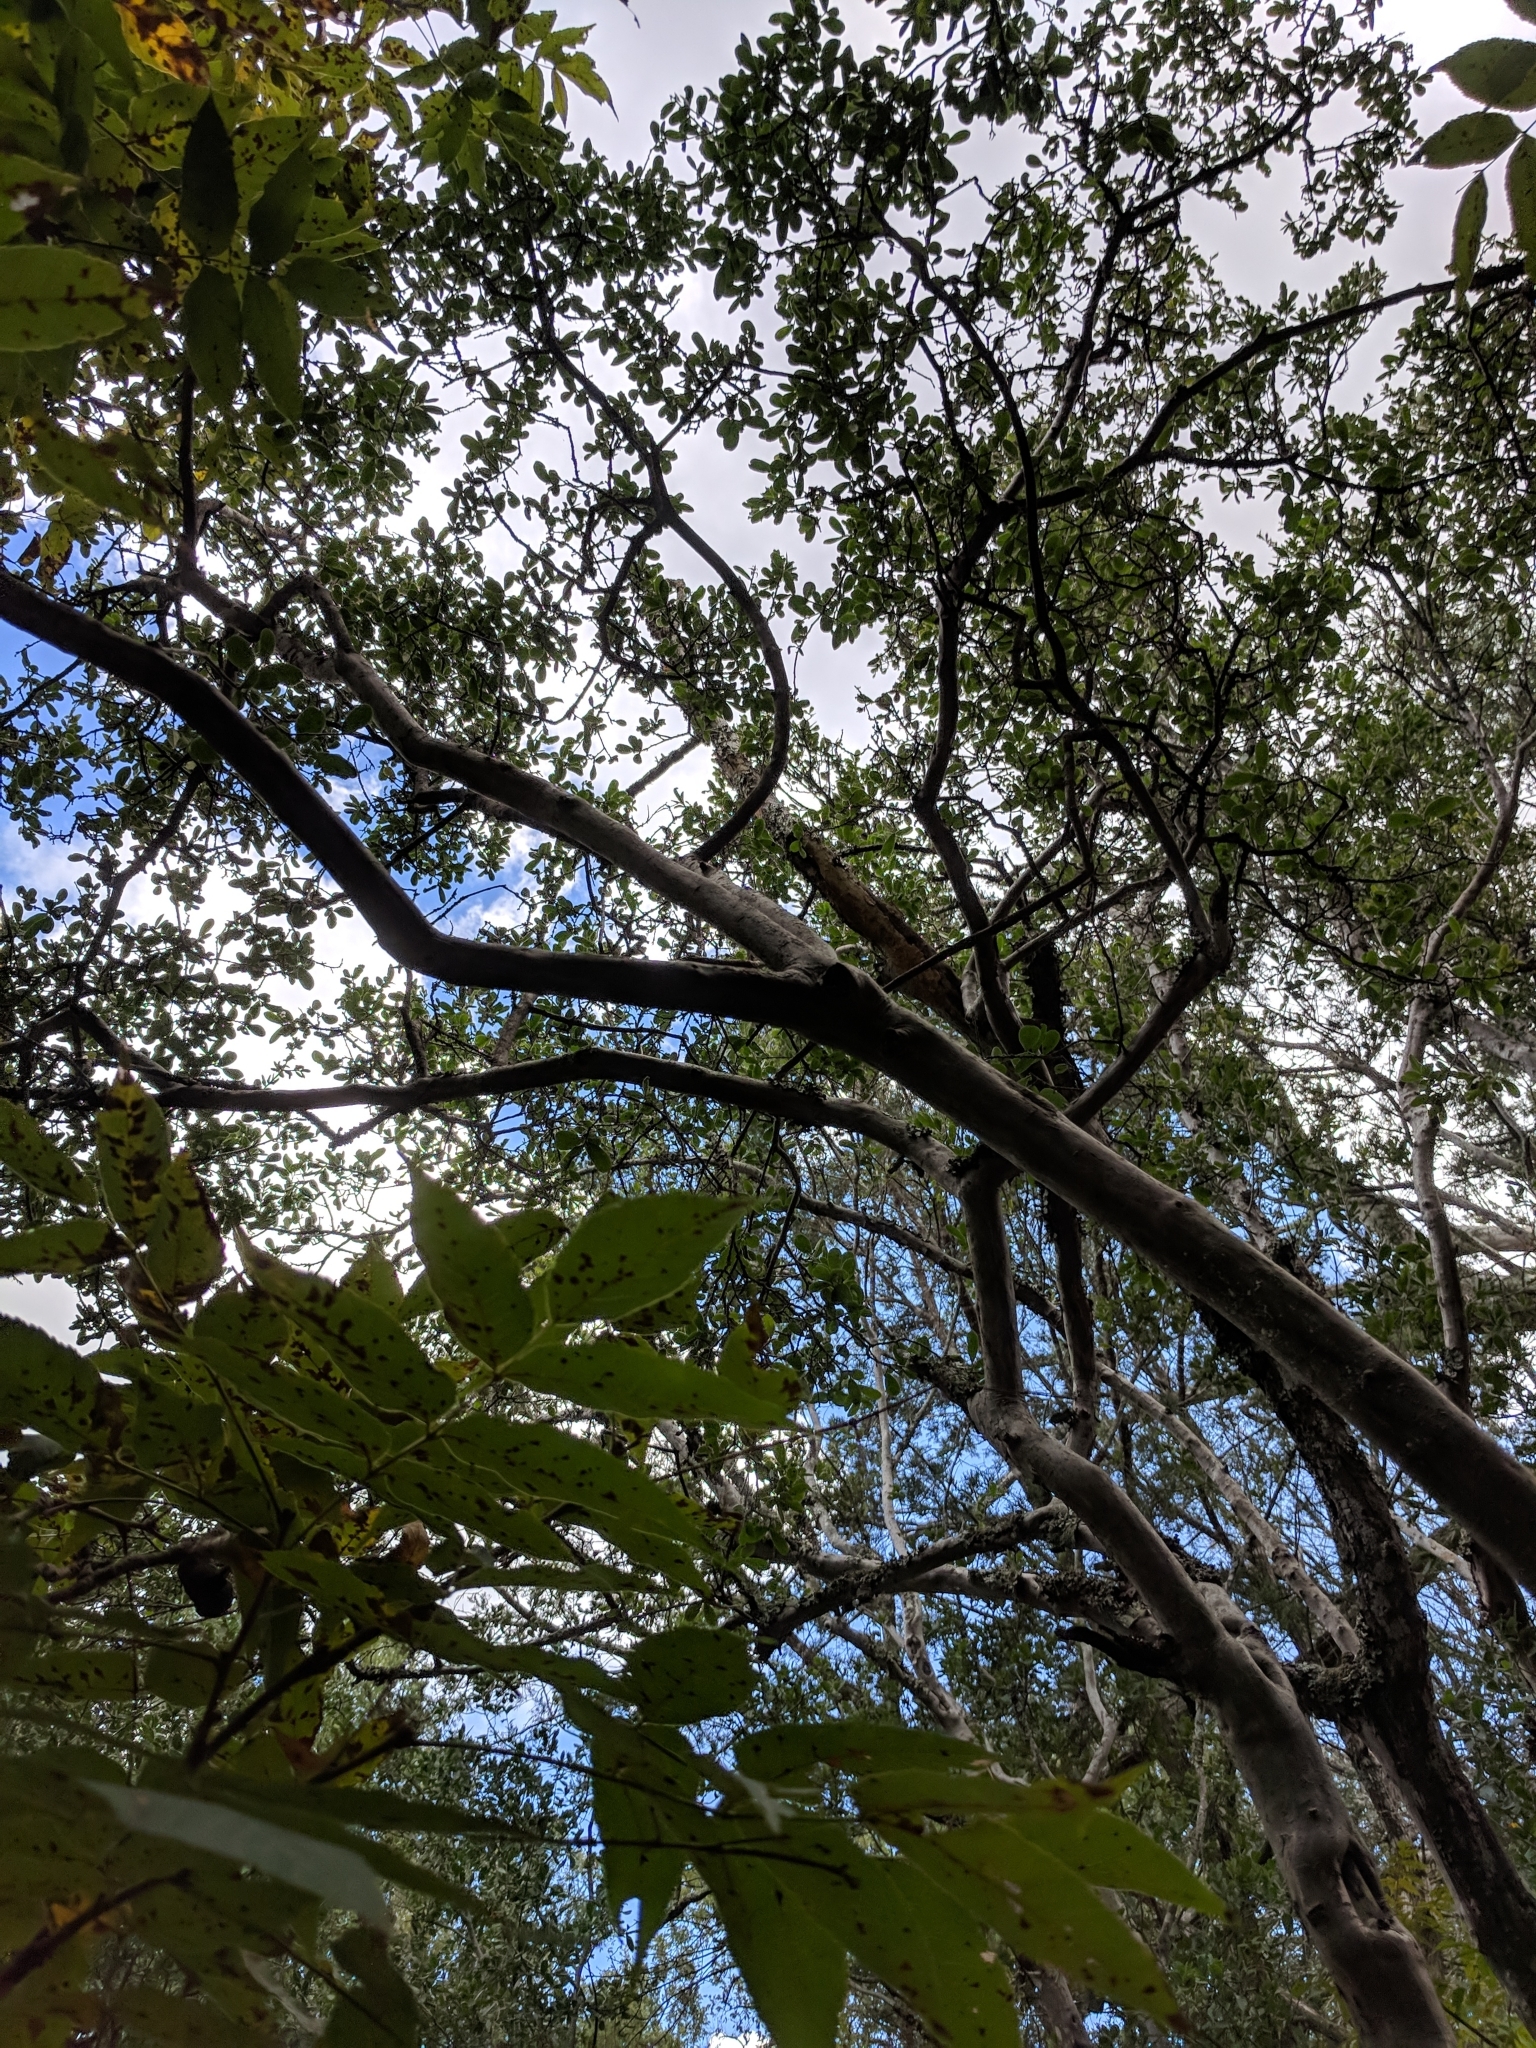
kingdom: Plantae
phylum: Tracheophyta
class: Magnoliopsida
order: Ericales
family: Ebenaceae
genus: Diospyros
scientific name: Diospyros texana
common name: Texas persimmon
